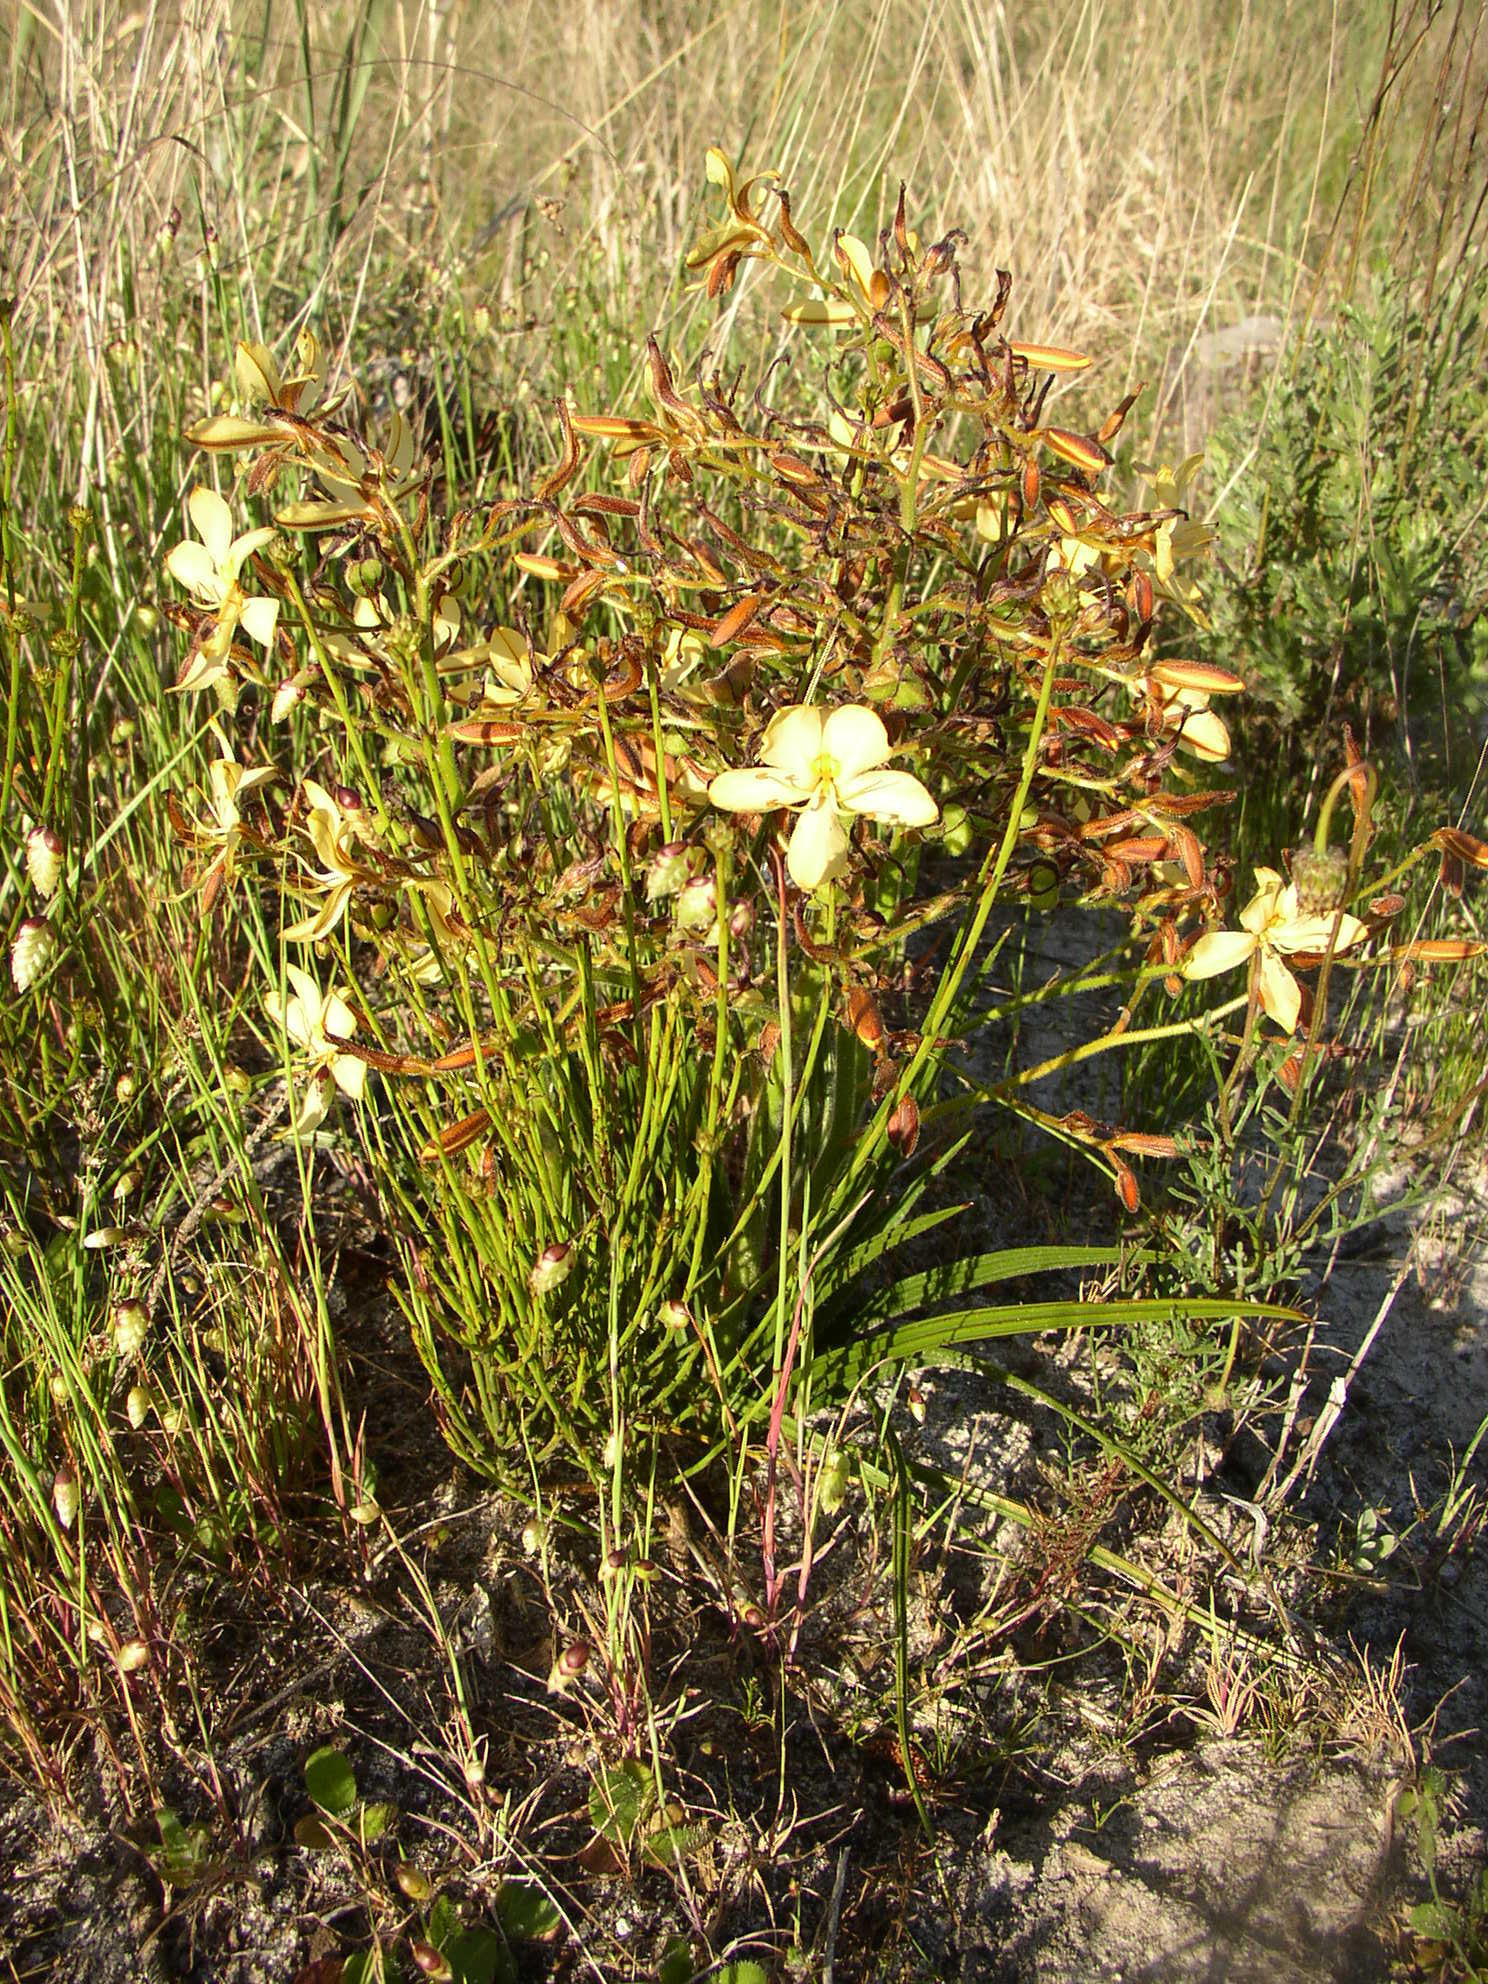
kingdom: Plantae
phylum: Tracheophyta
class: Liliopsida
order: Commelinales
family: Haemodoraceae
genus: Wachendorfia
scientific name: Wachendorfia paniculata
